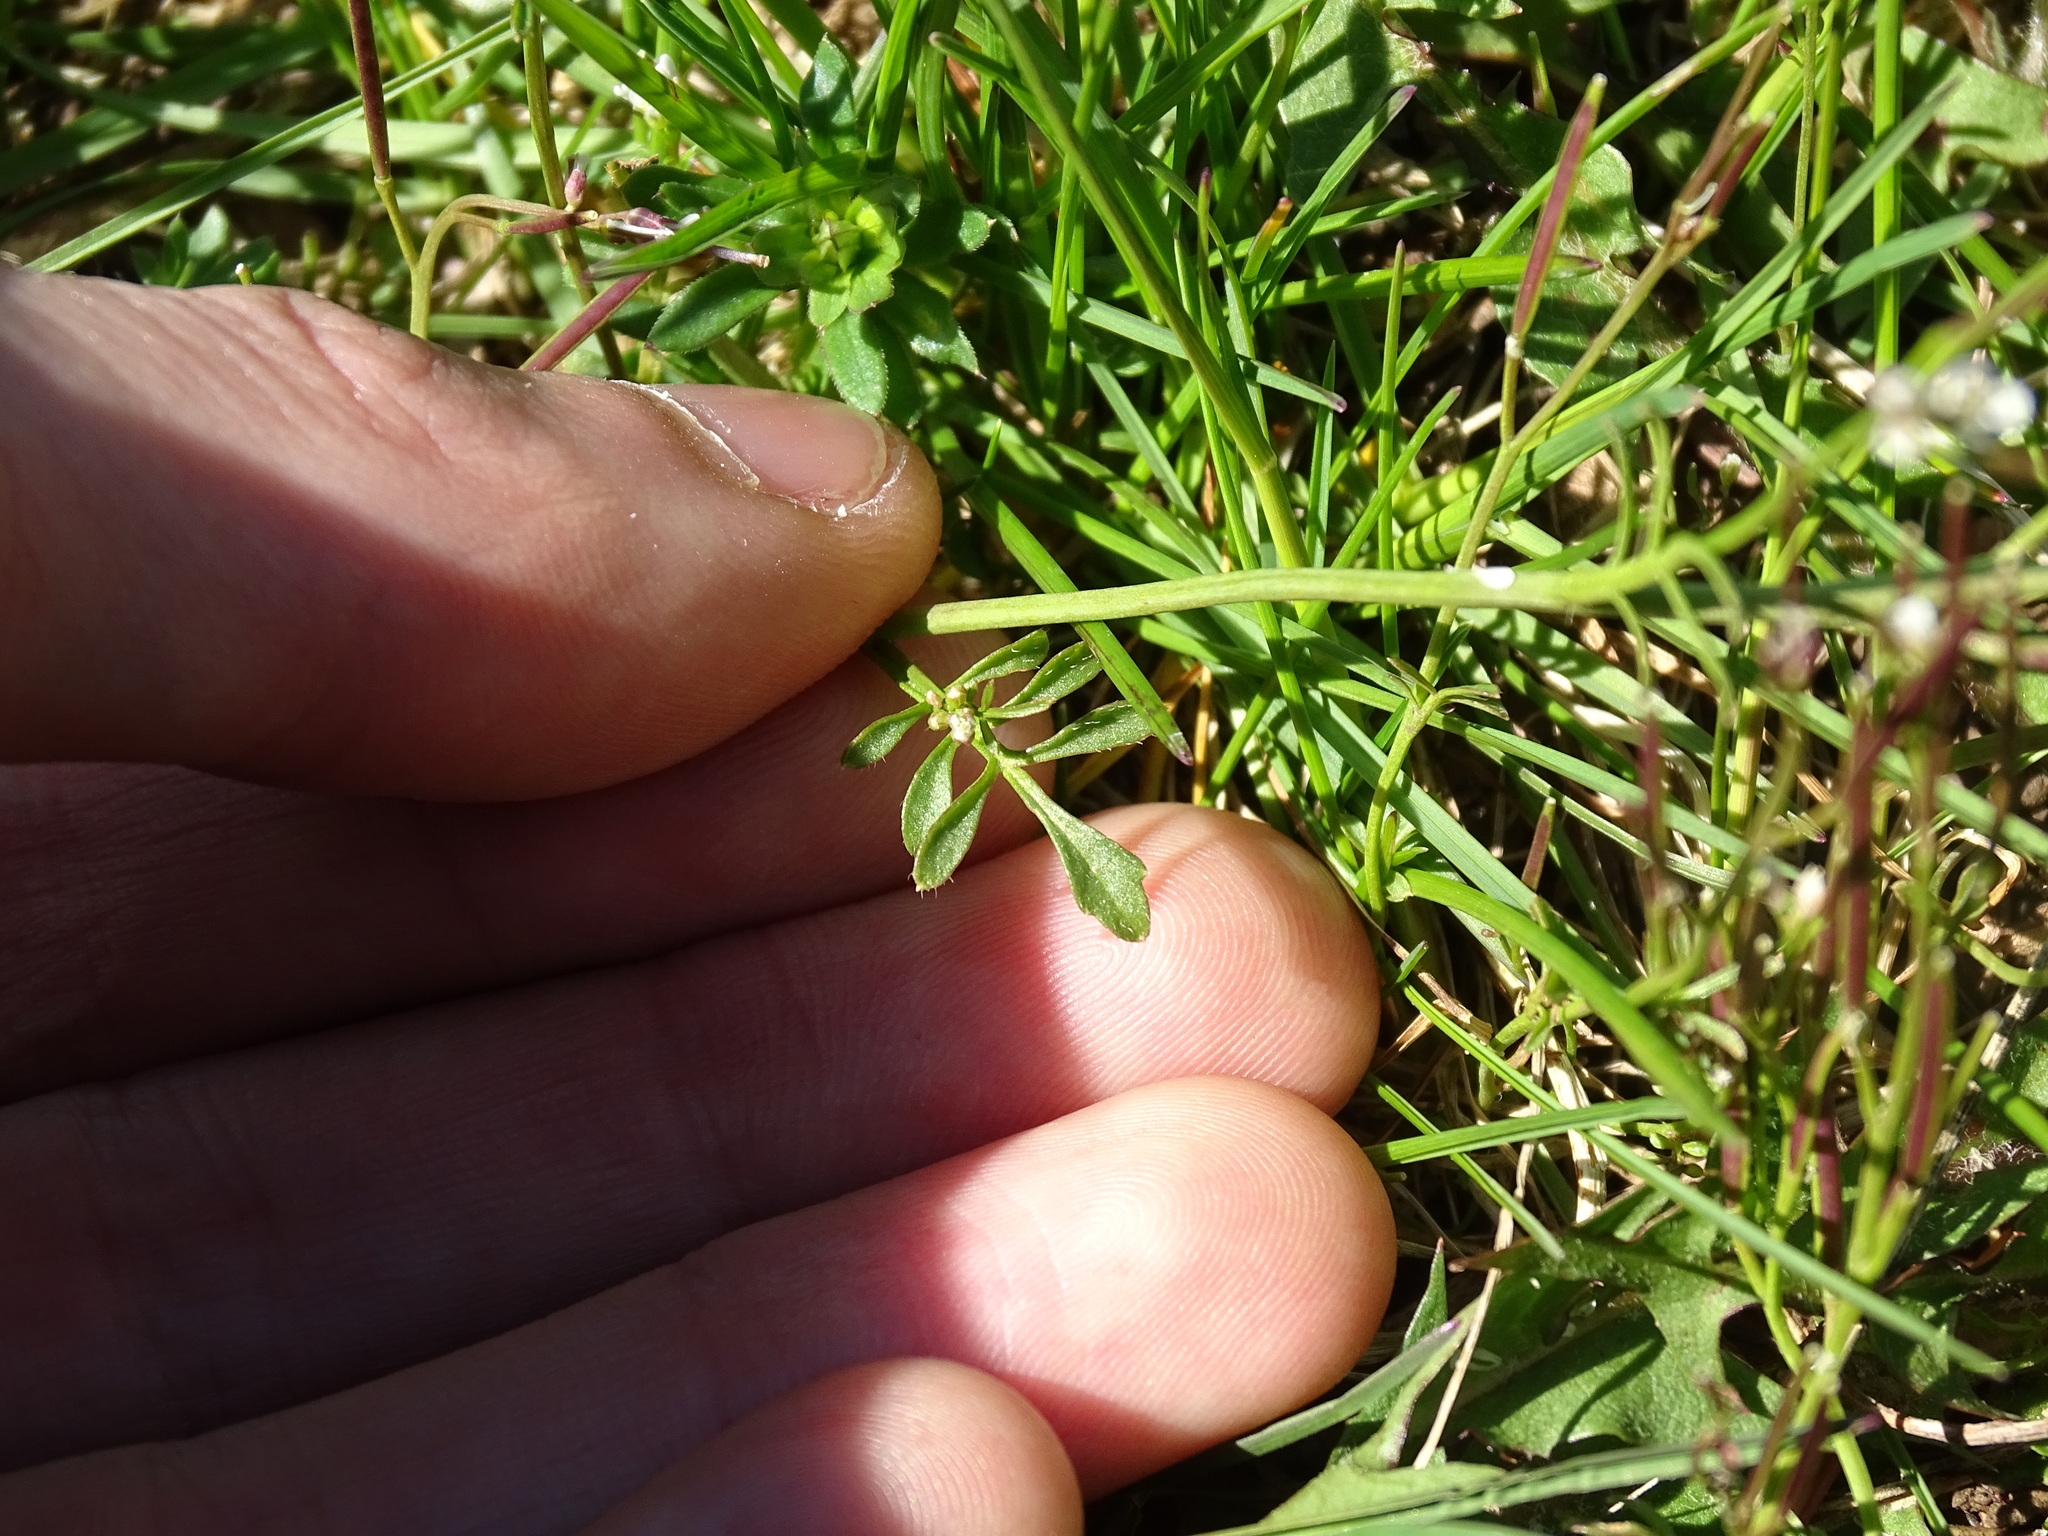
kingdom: Plantae
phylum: Tracheophyta
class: Magnoliopsida
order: Brassicales
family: Brassicaceae
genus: Cardamine
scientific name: Cardamine hirsuta
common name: Hairy bittercress
